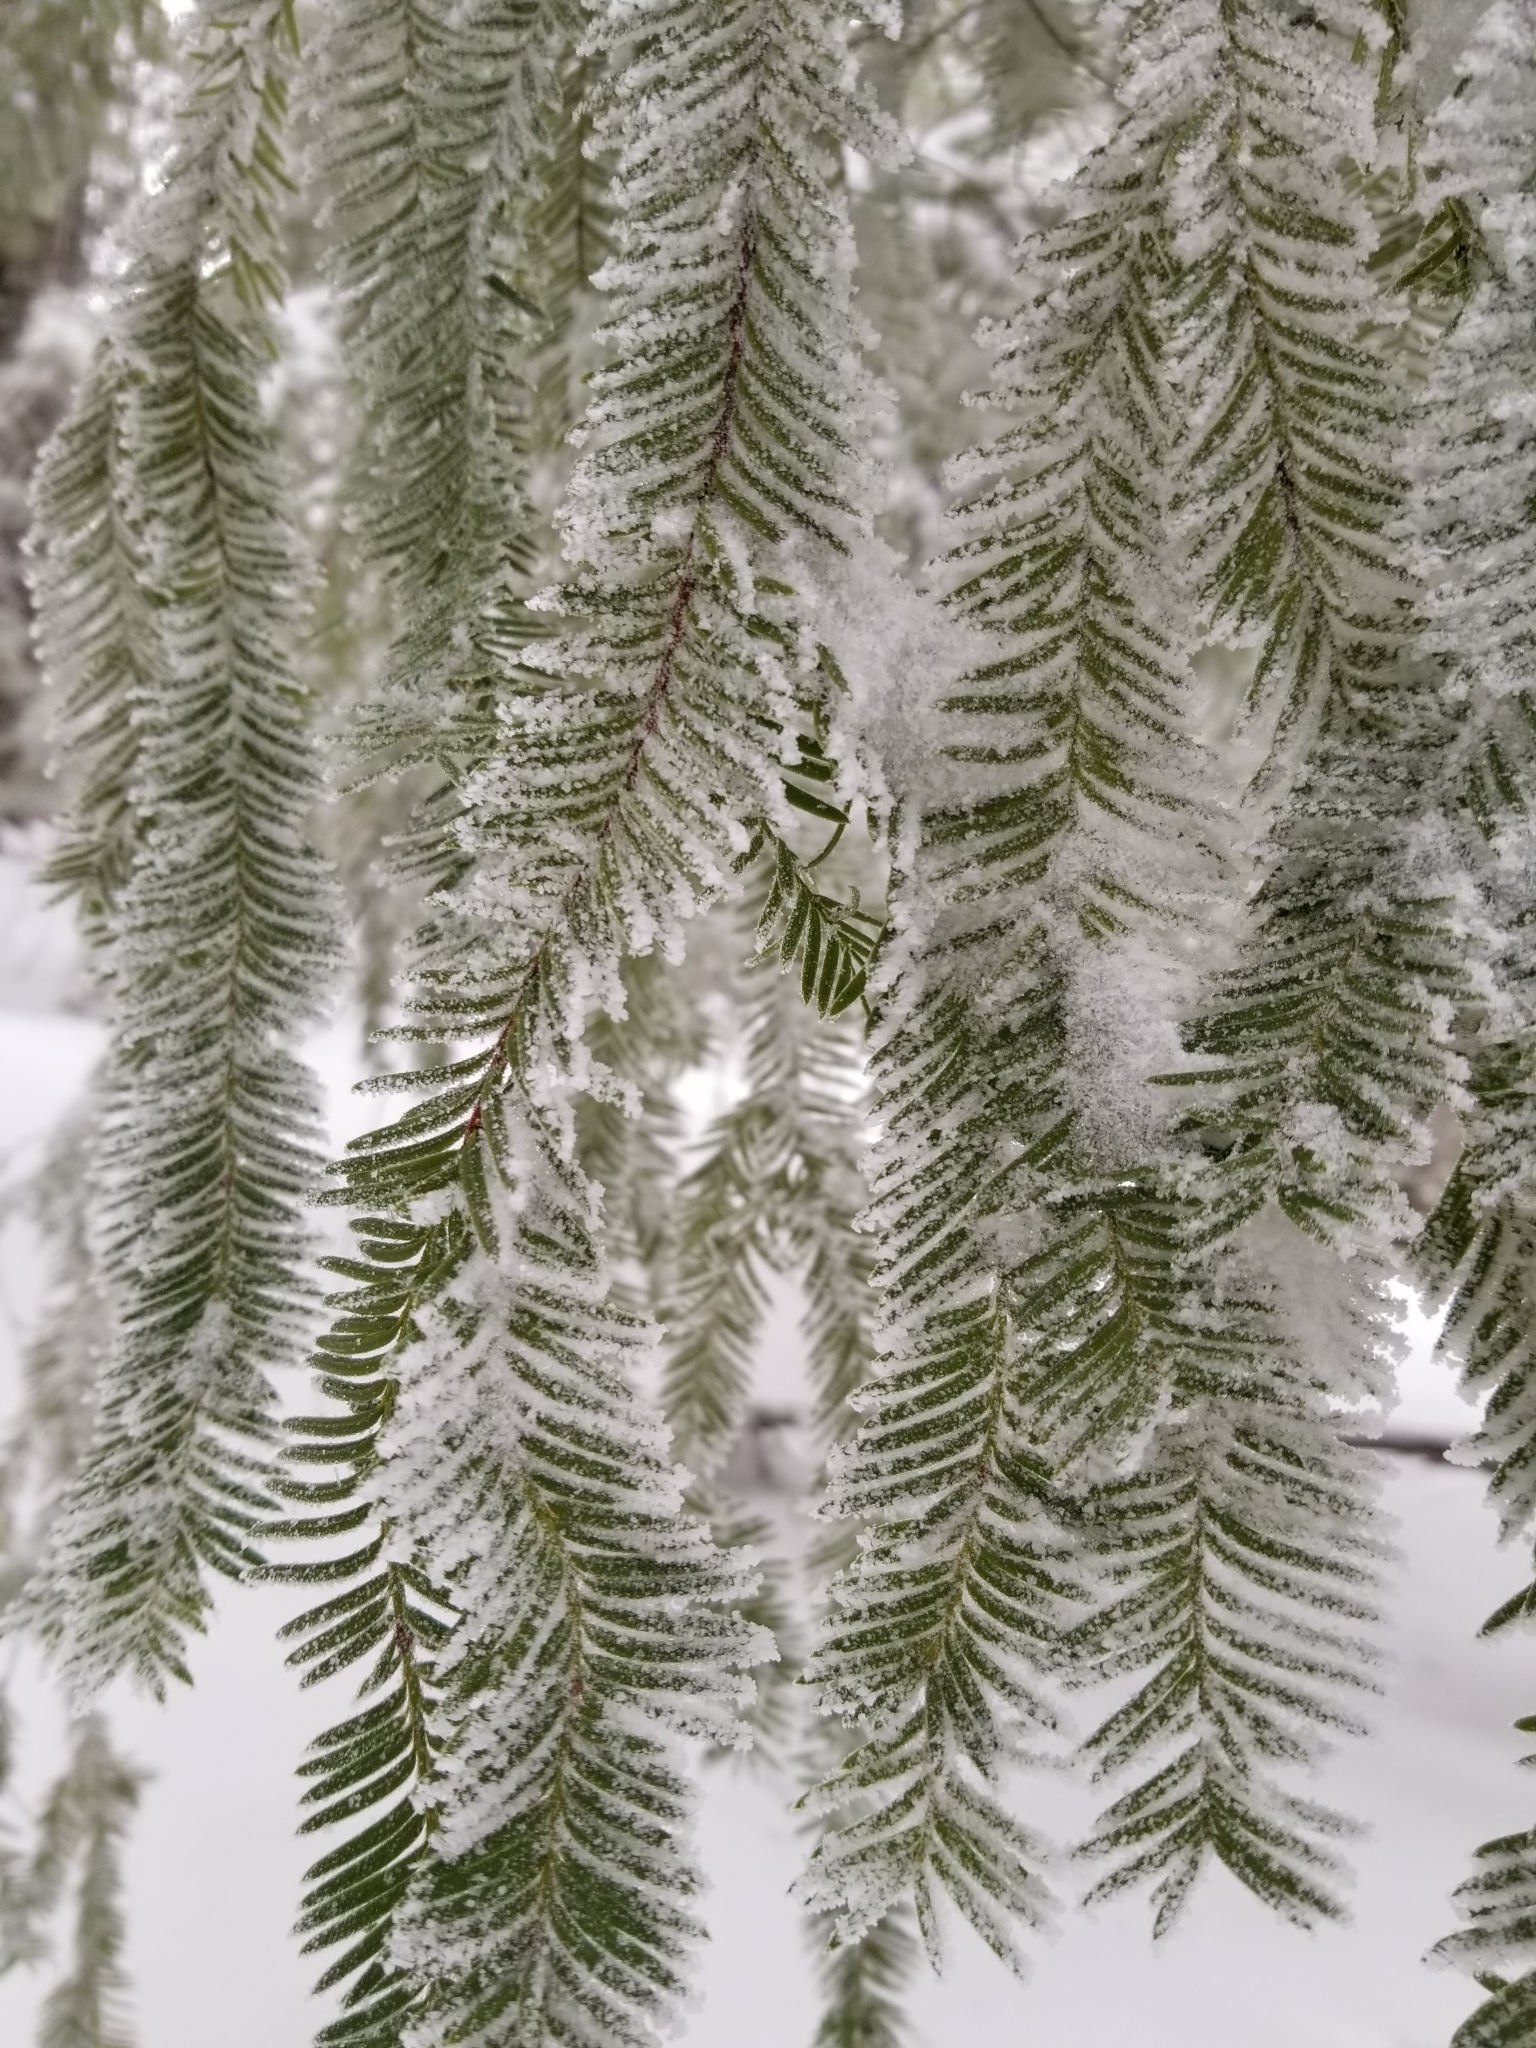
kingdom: Plantae
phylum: Tracheophyta
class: Pinopsida
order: Pinales
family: Taxaceae
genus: Taxus
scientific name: Taxus brevifolia
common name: Pacific yew
